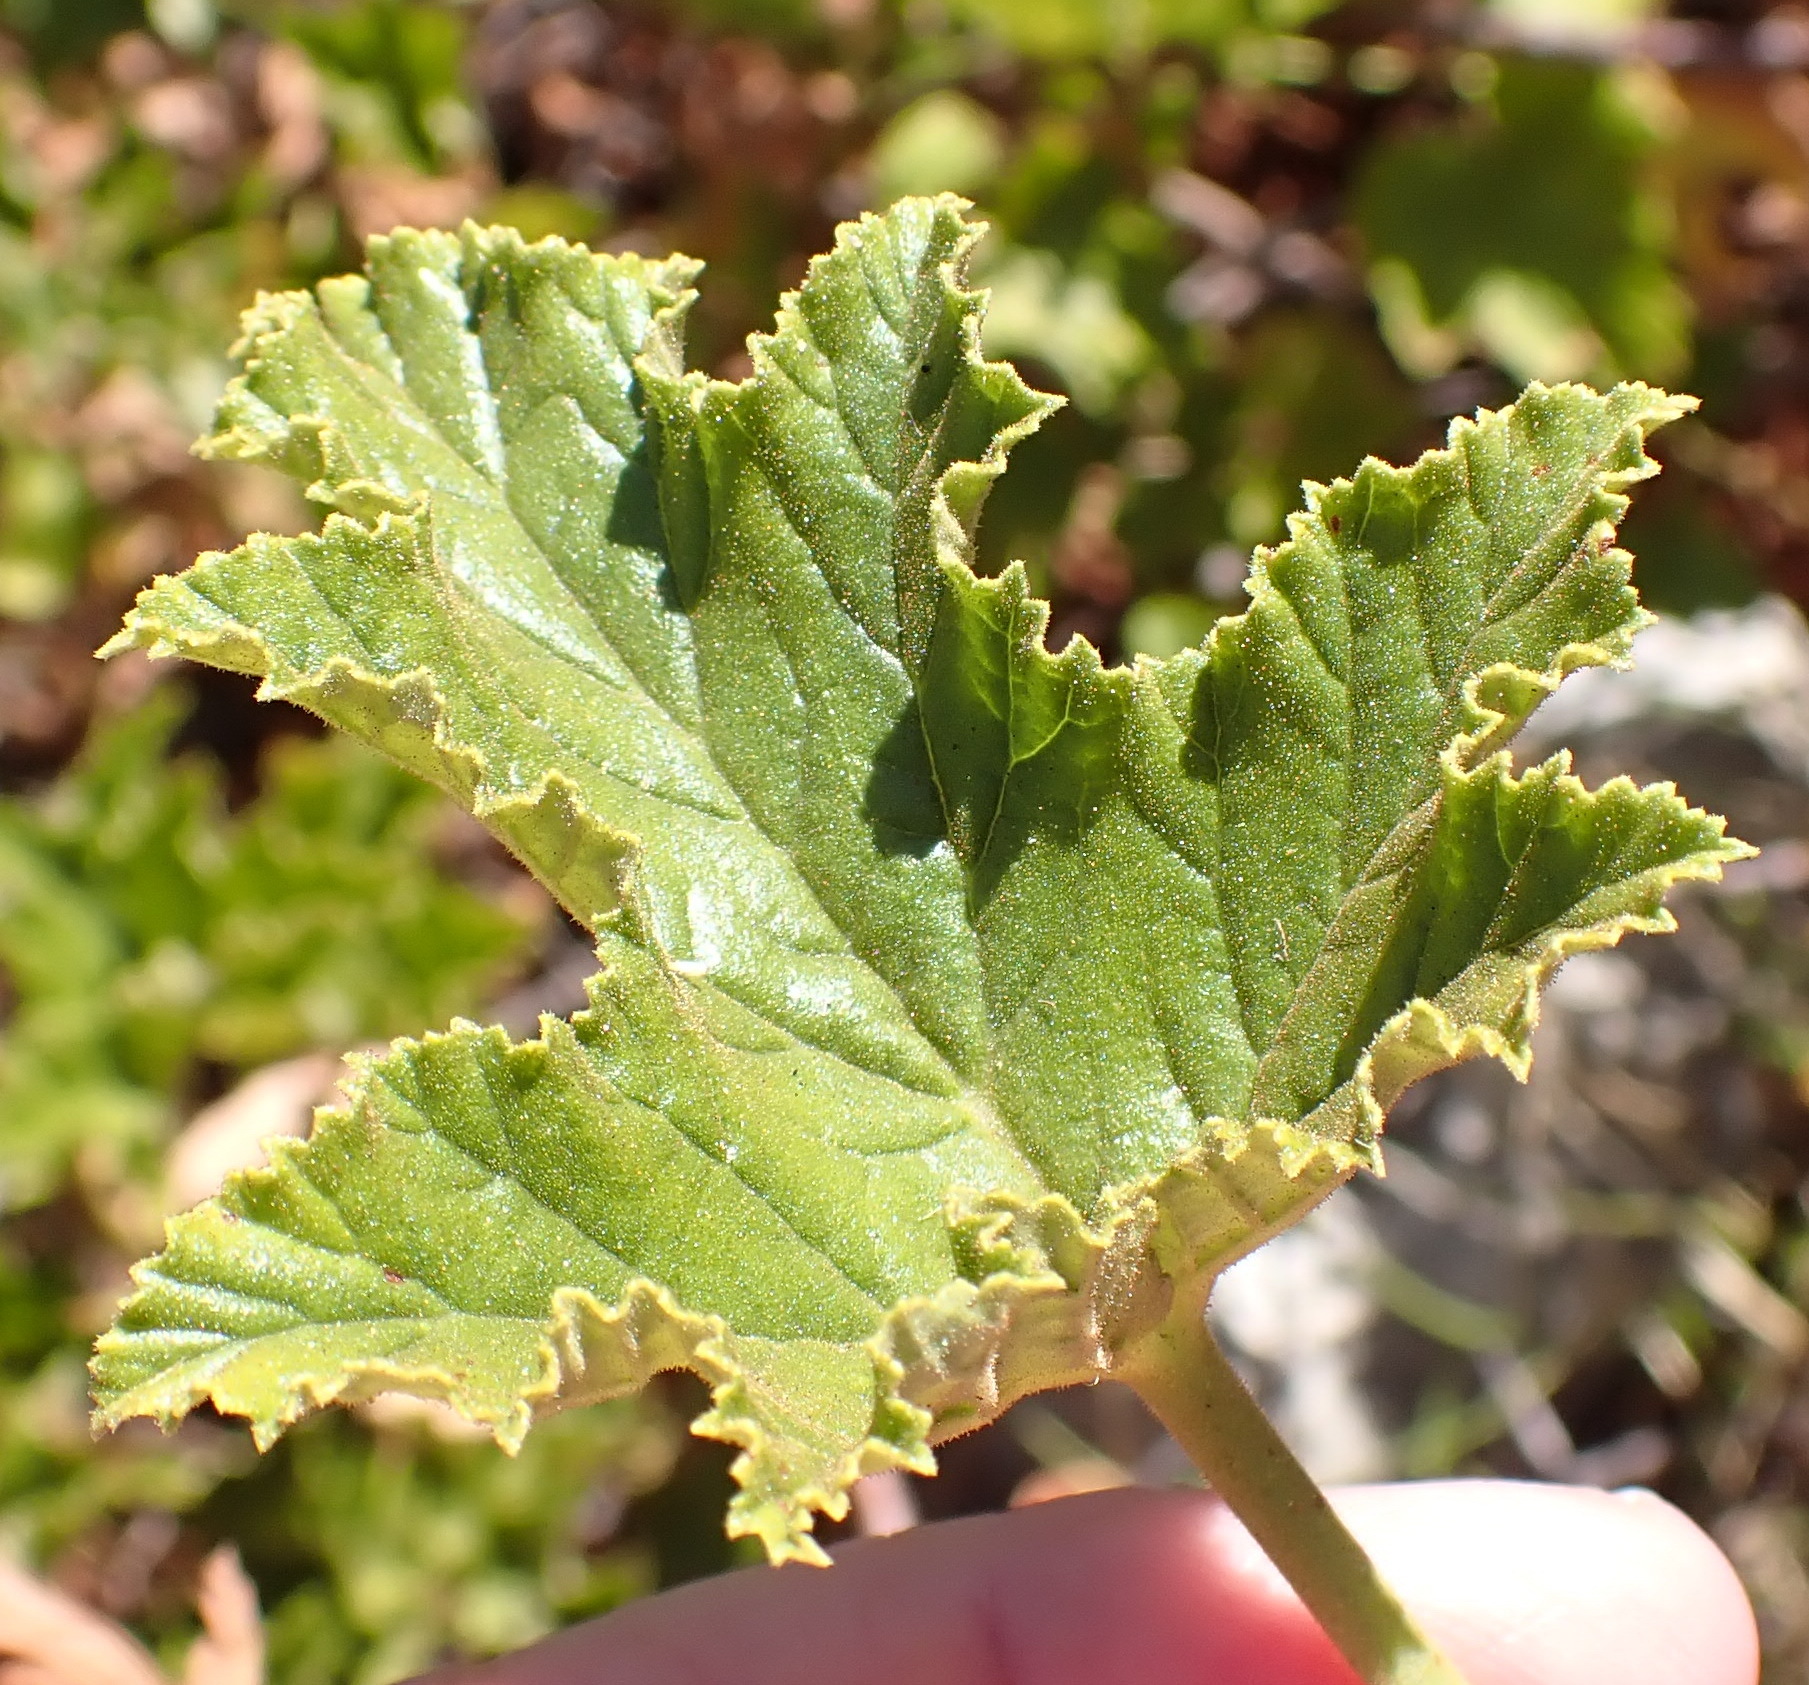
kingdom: Plantae
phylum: Tracheophyta
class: Magnoliopsida
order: Geraniales
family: Geraniaceae
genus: Pelargonium
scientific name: Pelargonium pseudoglutinosum
